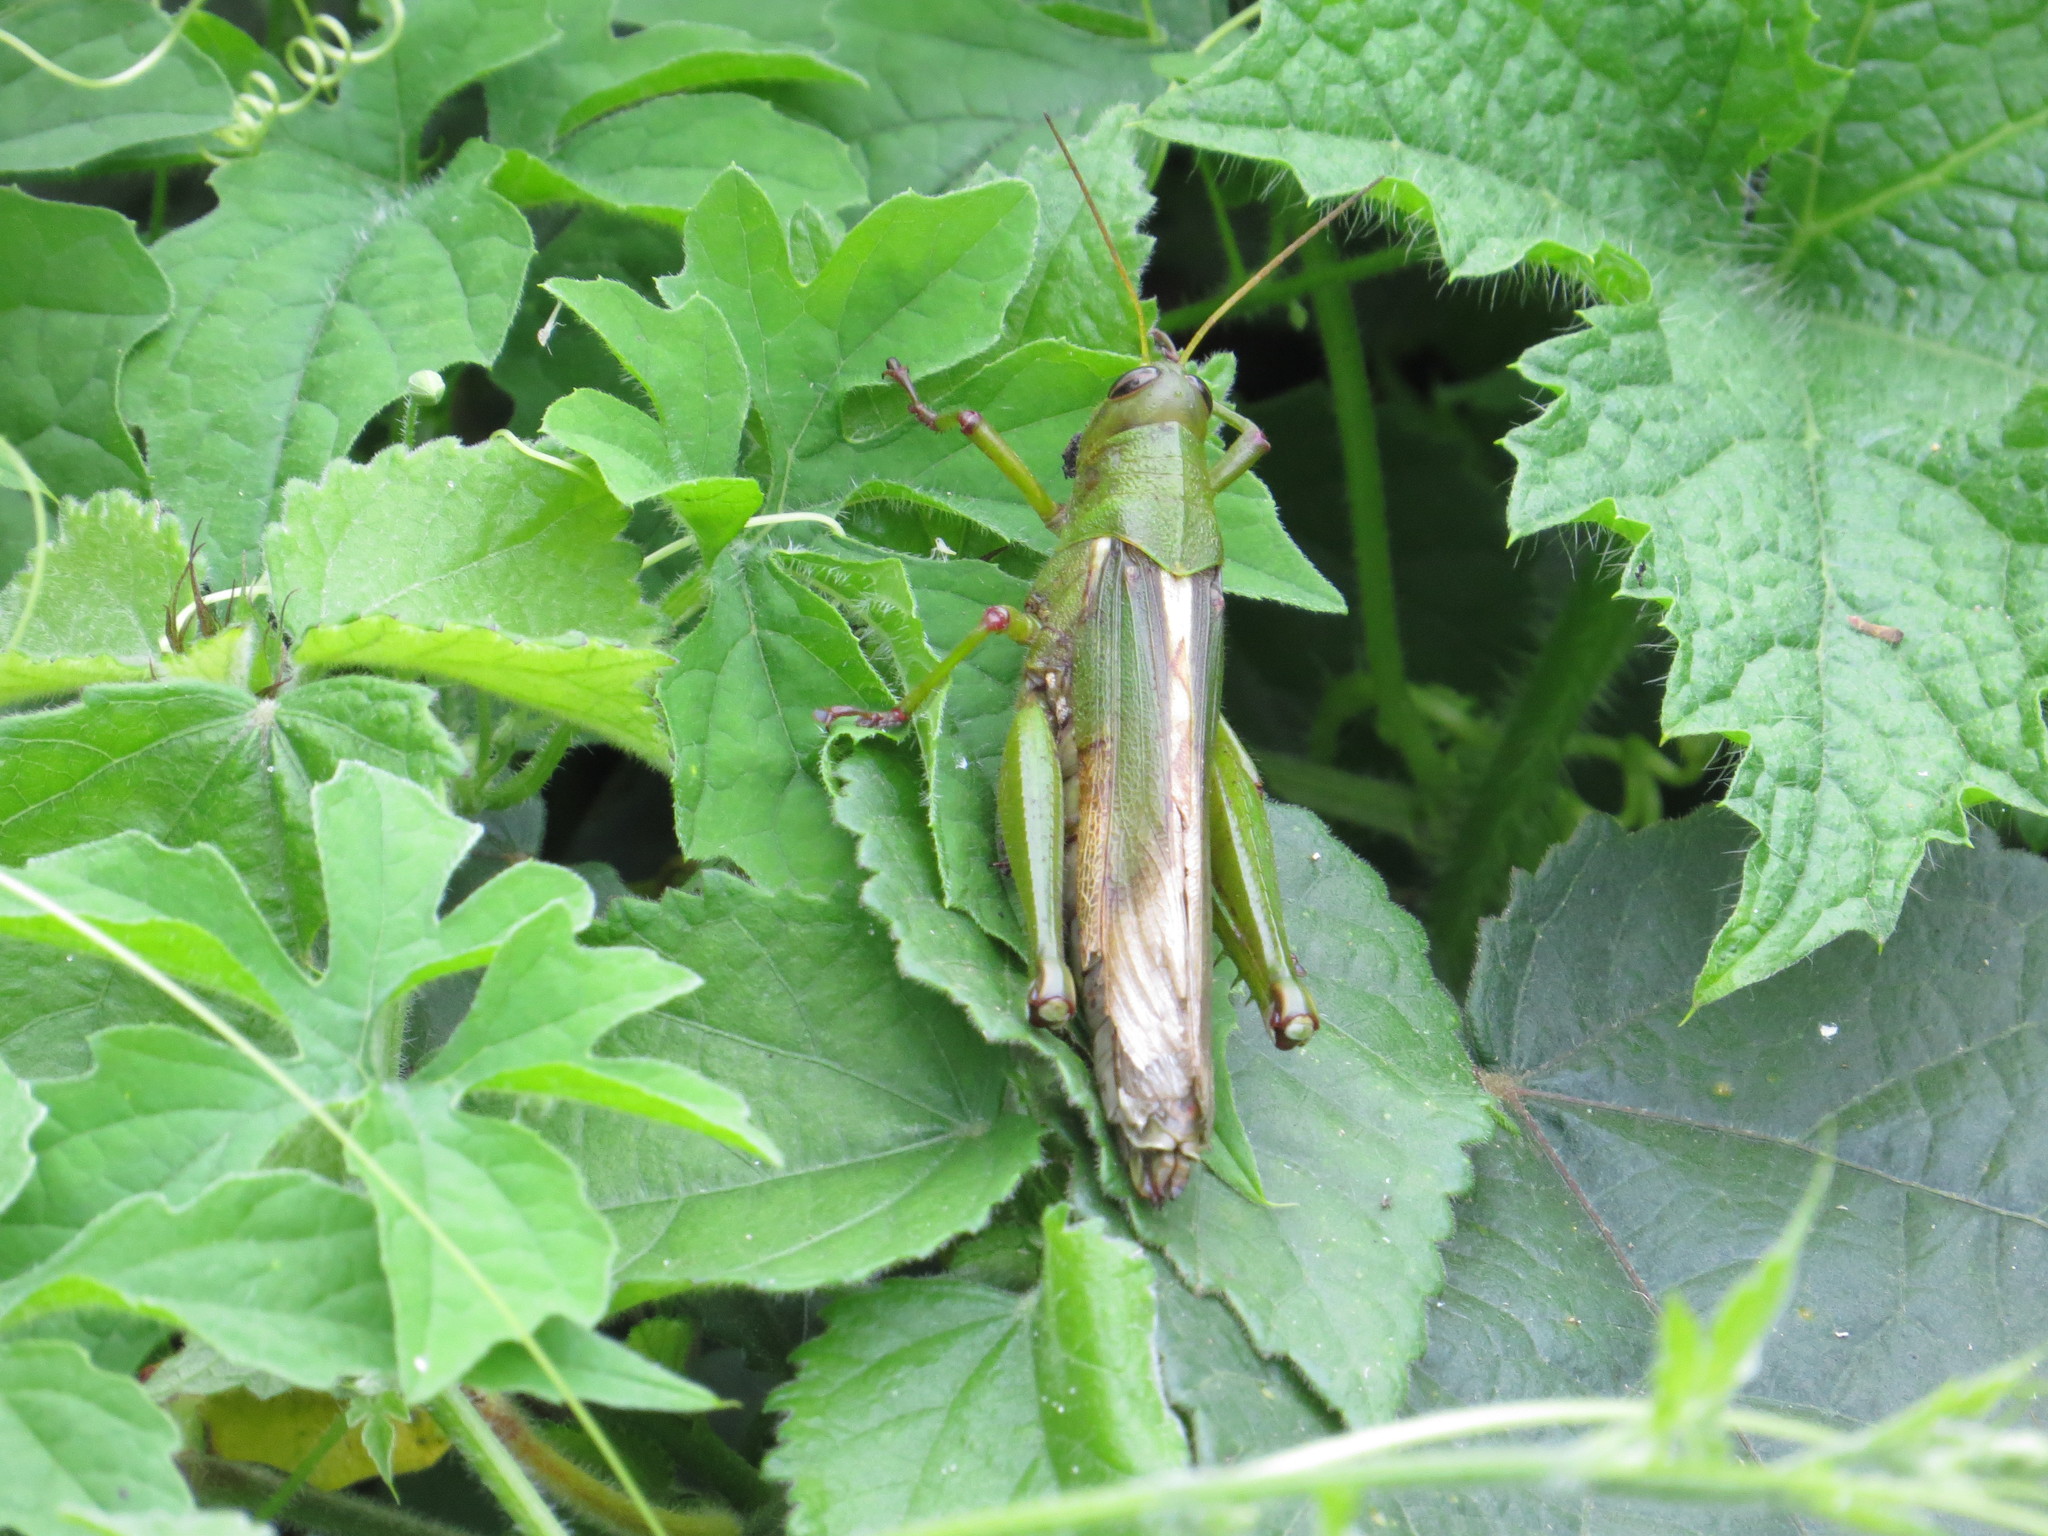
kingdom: Animalia
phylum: Arthropoda
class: Insecta
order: Orthoptera
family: Acrididae
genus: Kraussaria
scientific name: Kraussaria deckeni
